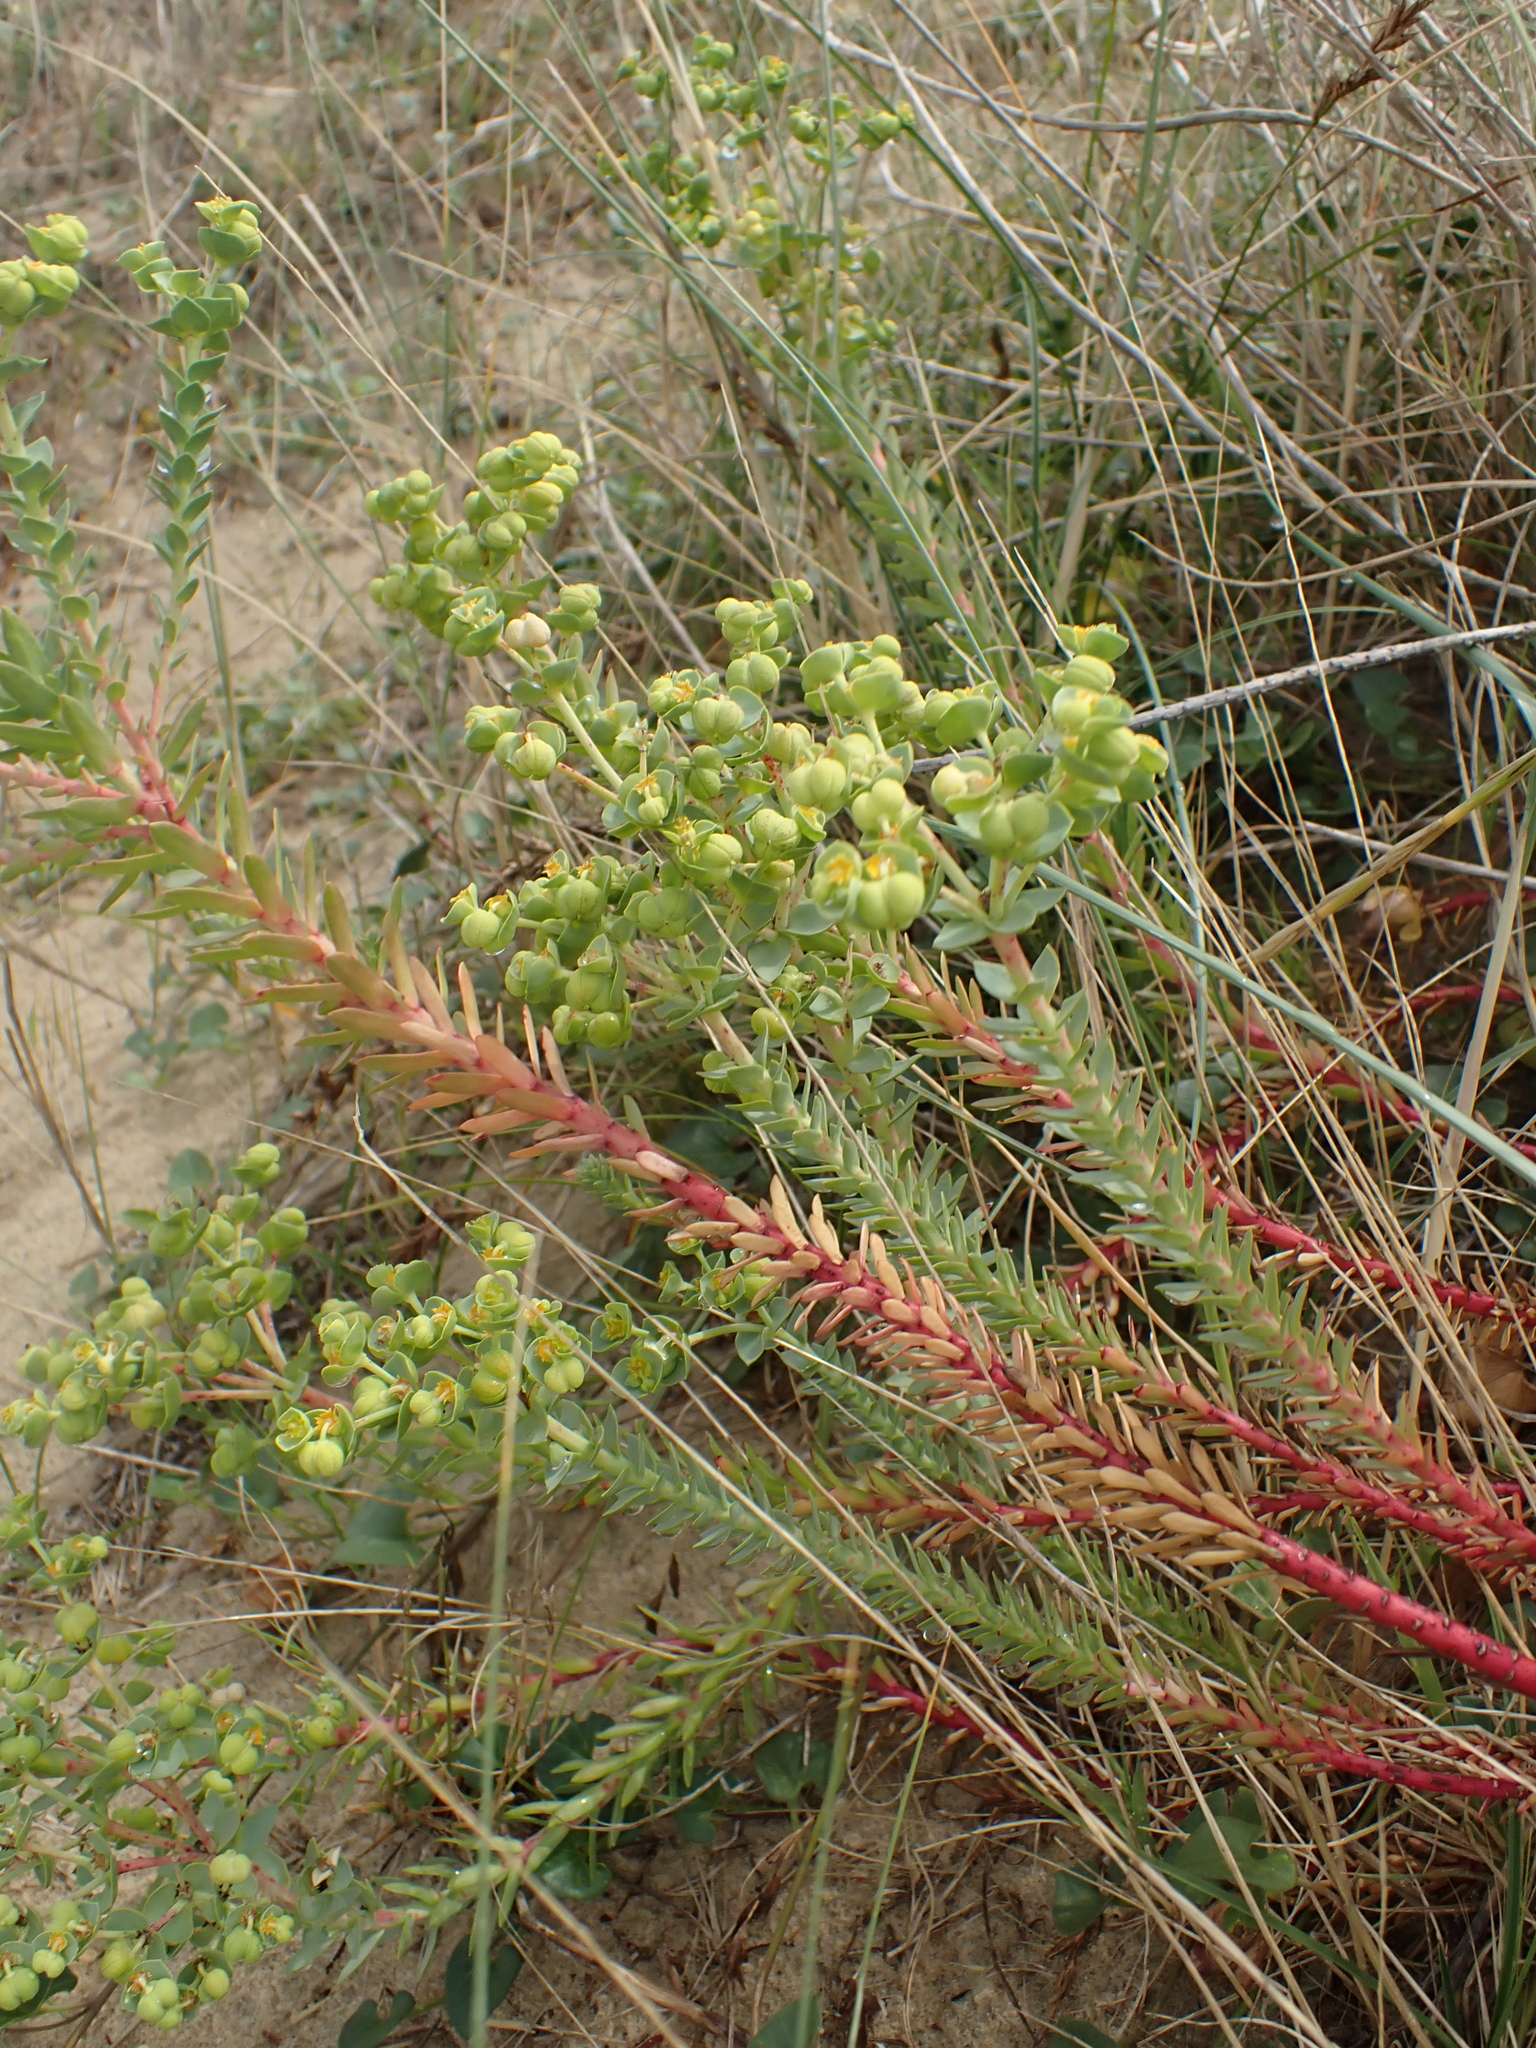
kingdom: Plantae
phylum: Tracheophyta
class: Magnoliopsida
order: Malpighiales
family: Euphorbiaceae
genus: Euphorbia
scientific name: Euphorbia paralias
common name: Sea spurge
